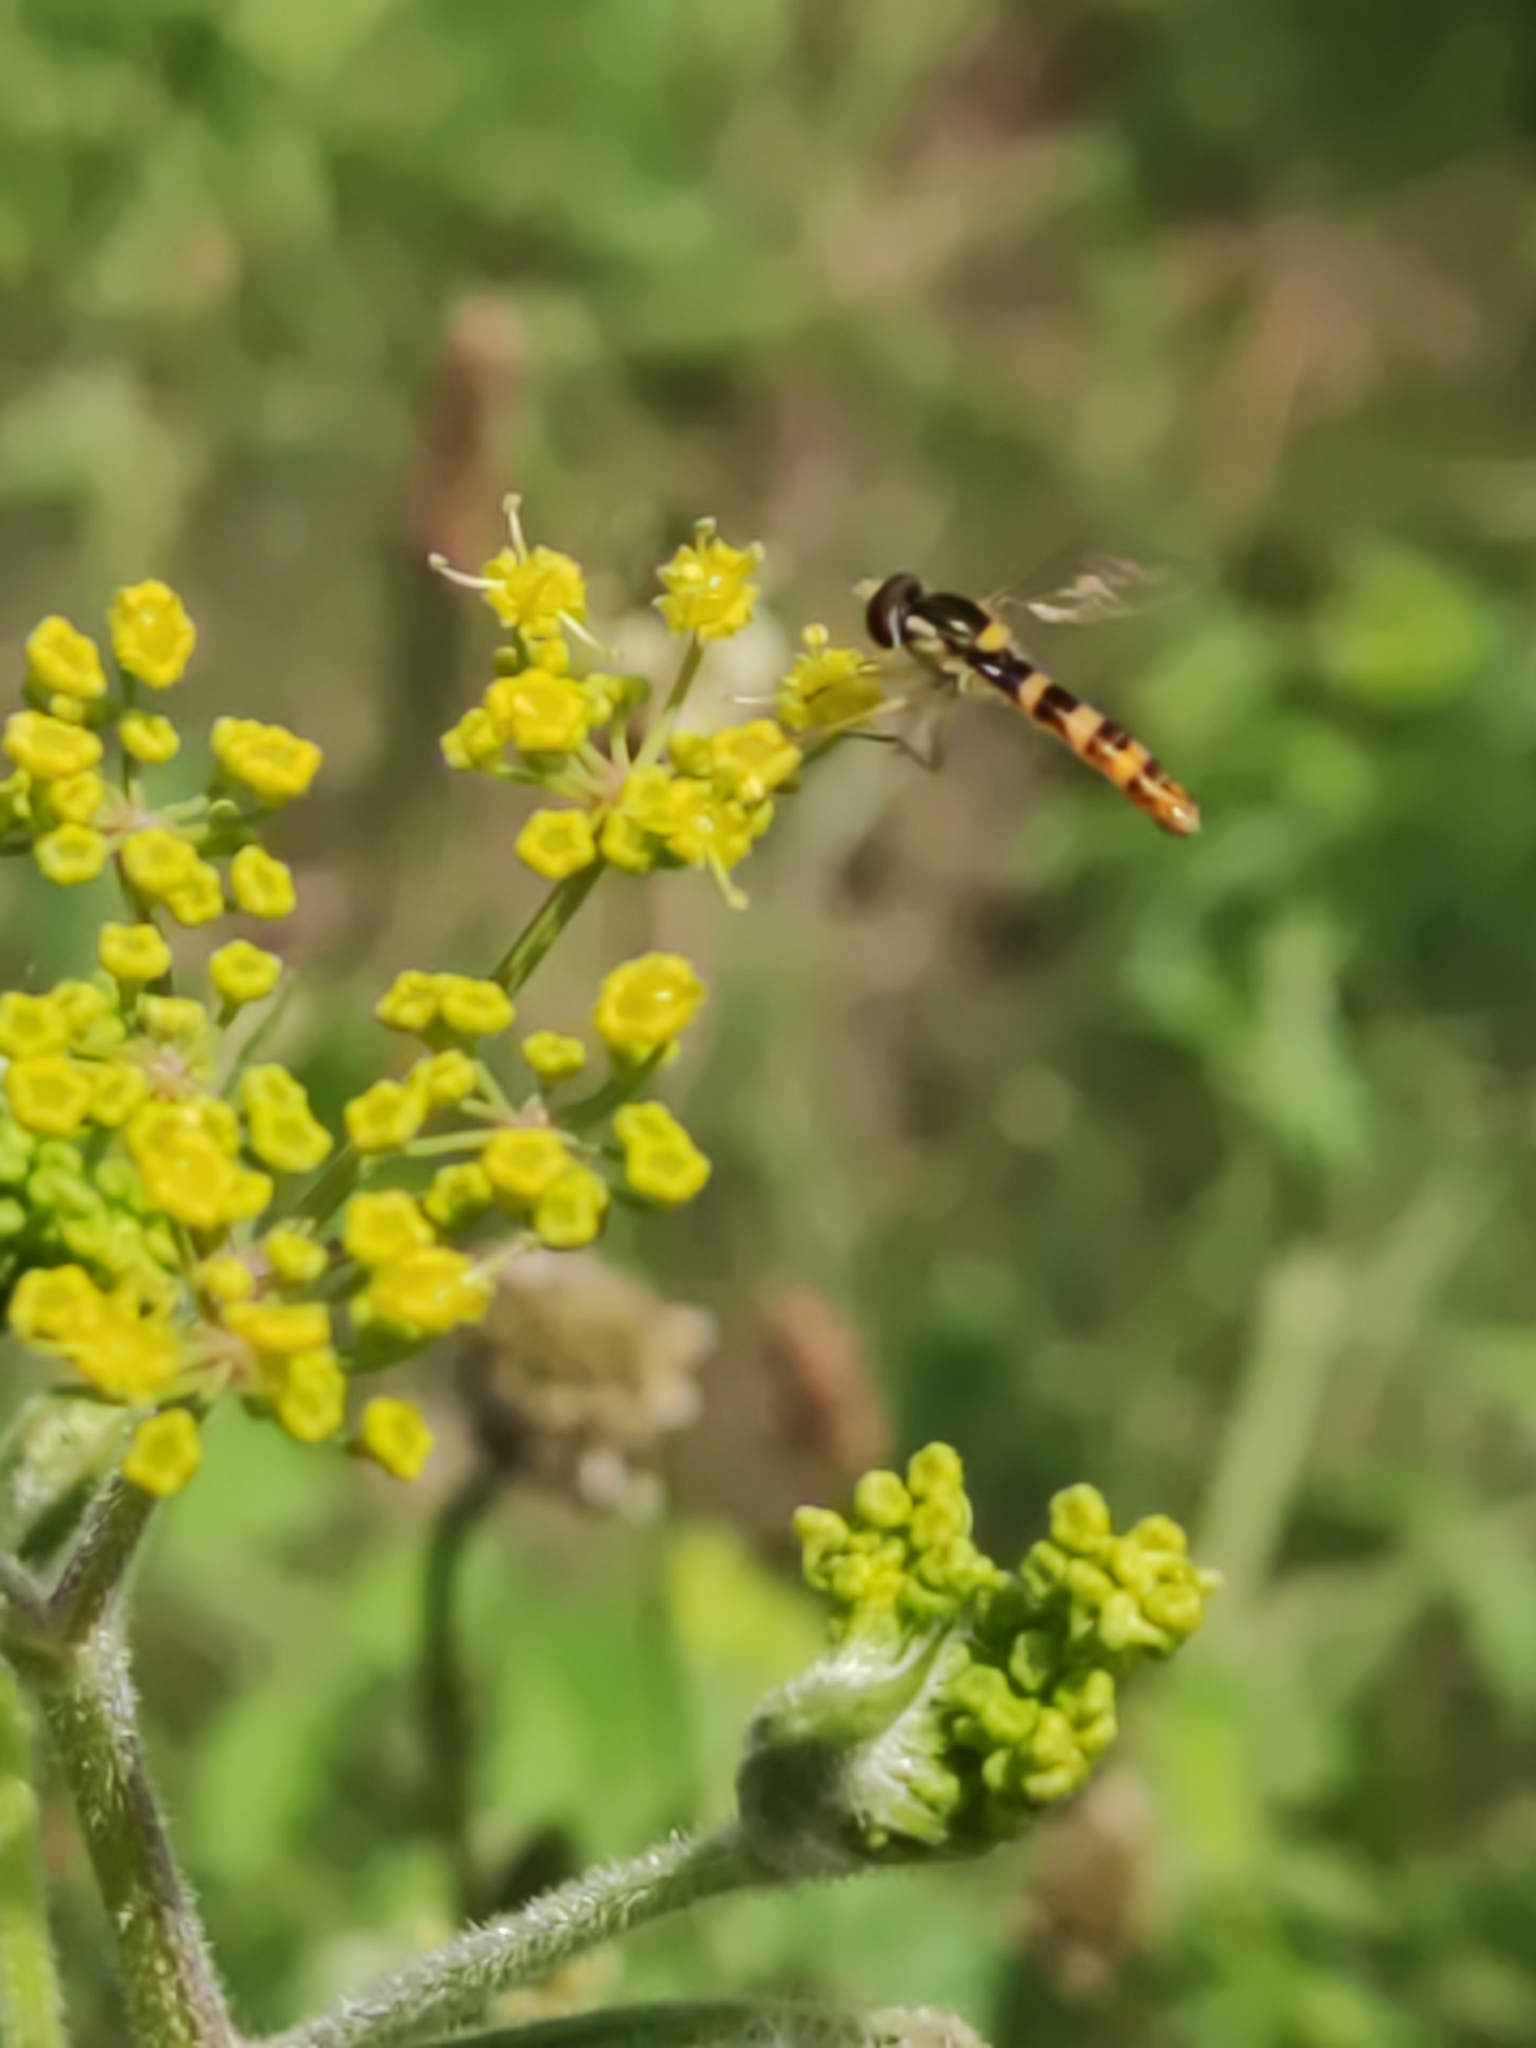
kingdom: Animalia
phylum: Arthropoda
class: Insecta
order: Diptera
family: Syrphidae
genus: Sphaerophoria
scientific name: Sphaerophoria scripta
